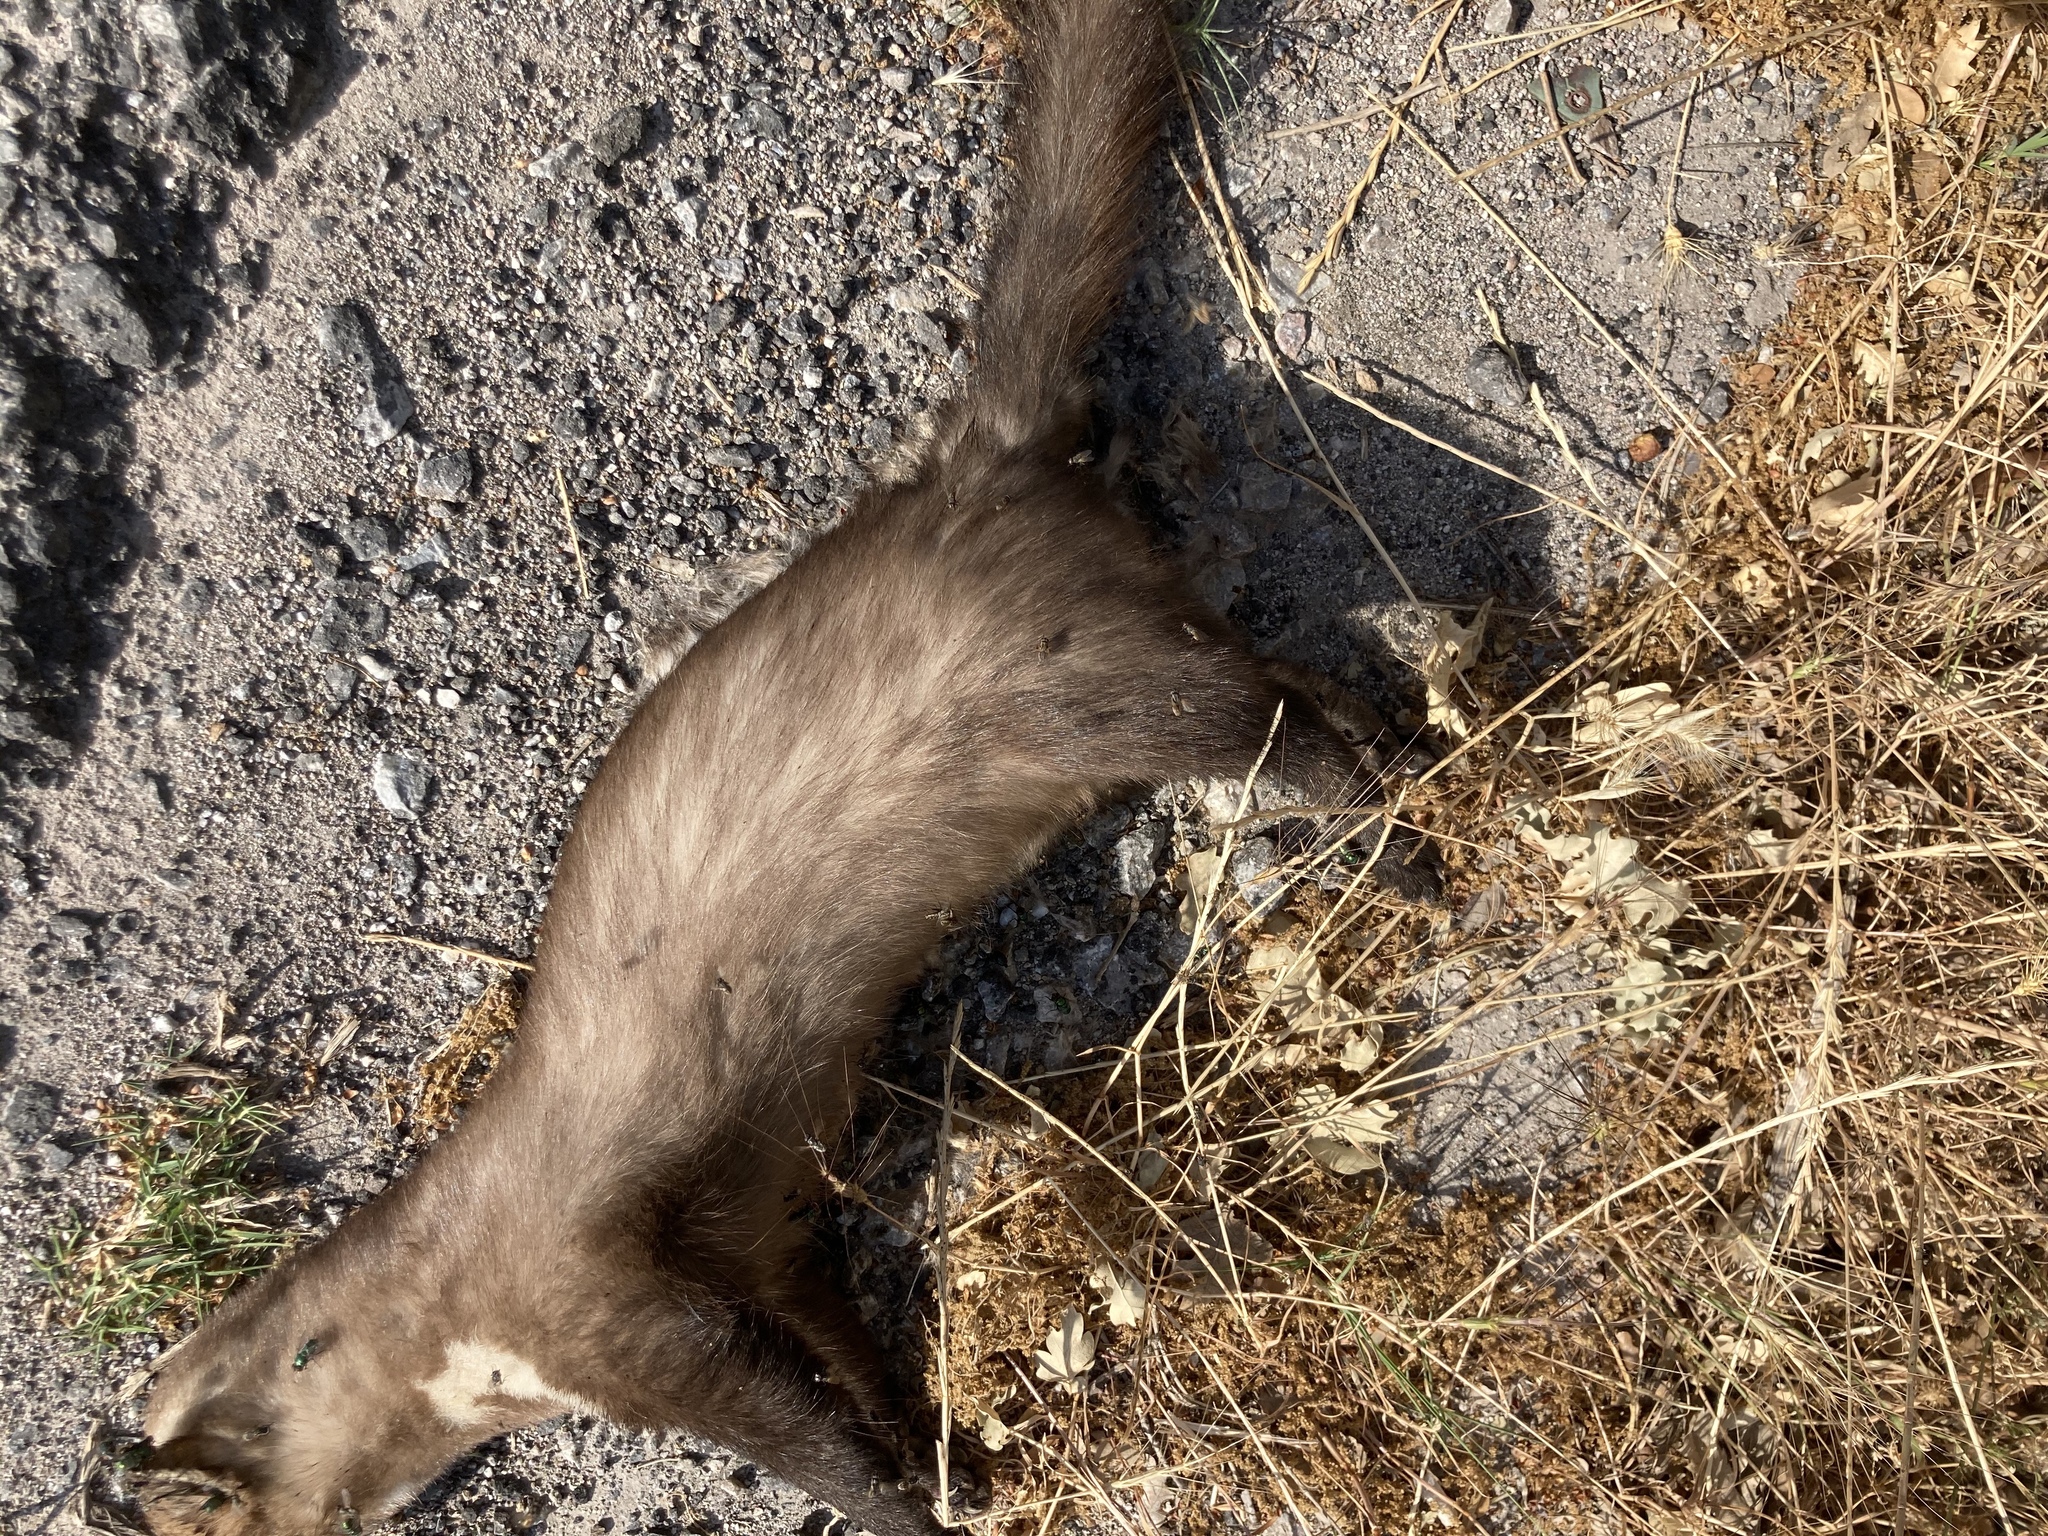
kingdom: Animalia
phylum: Chordata
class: Mammalia
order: Carnivora
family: Mustelidae
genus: Martes
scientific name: Martes foina
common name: Beech marten
